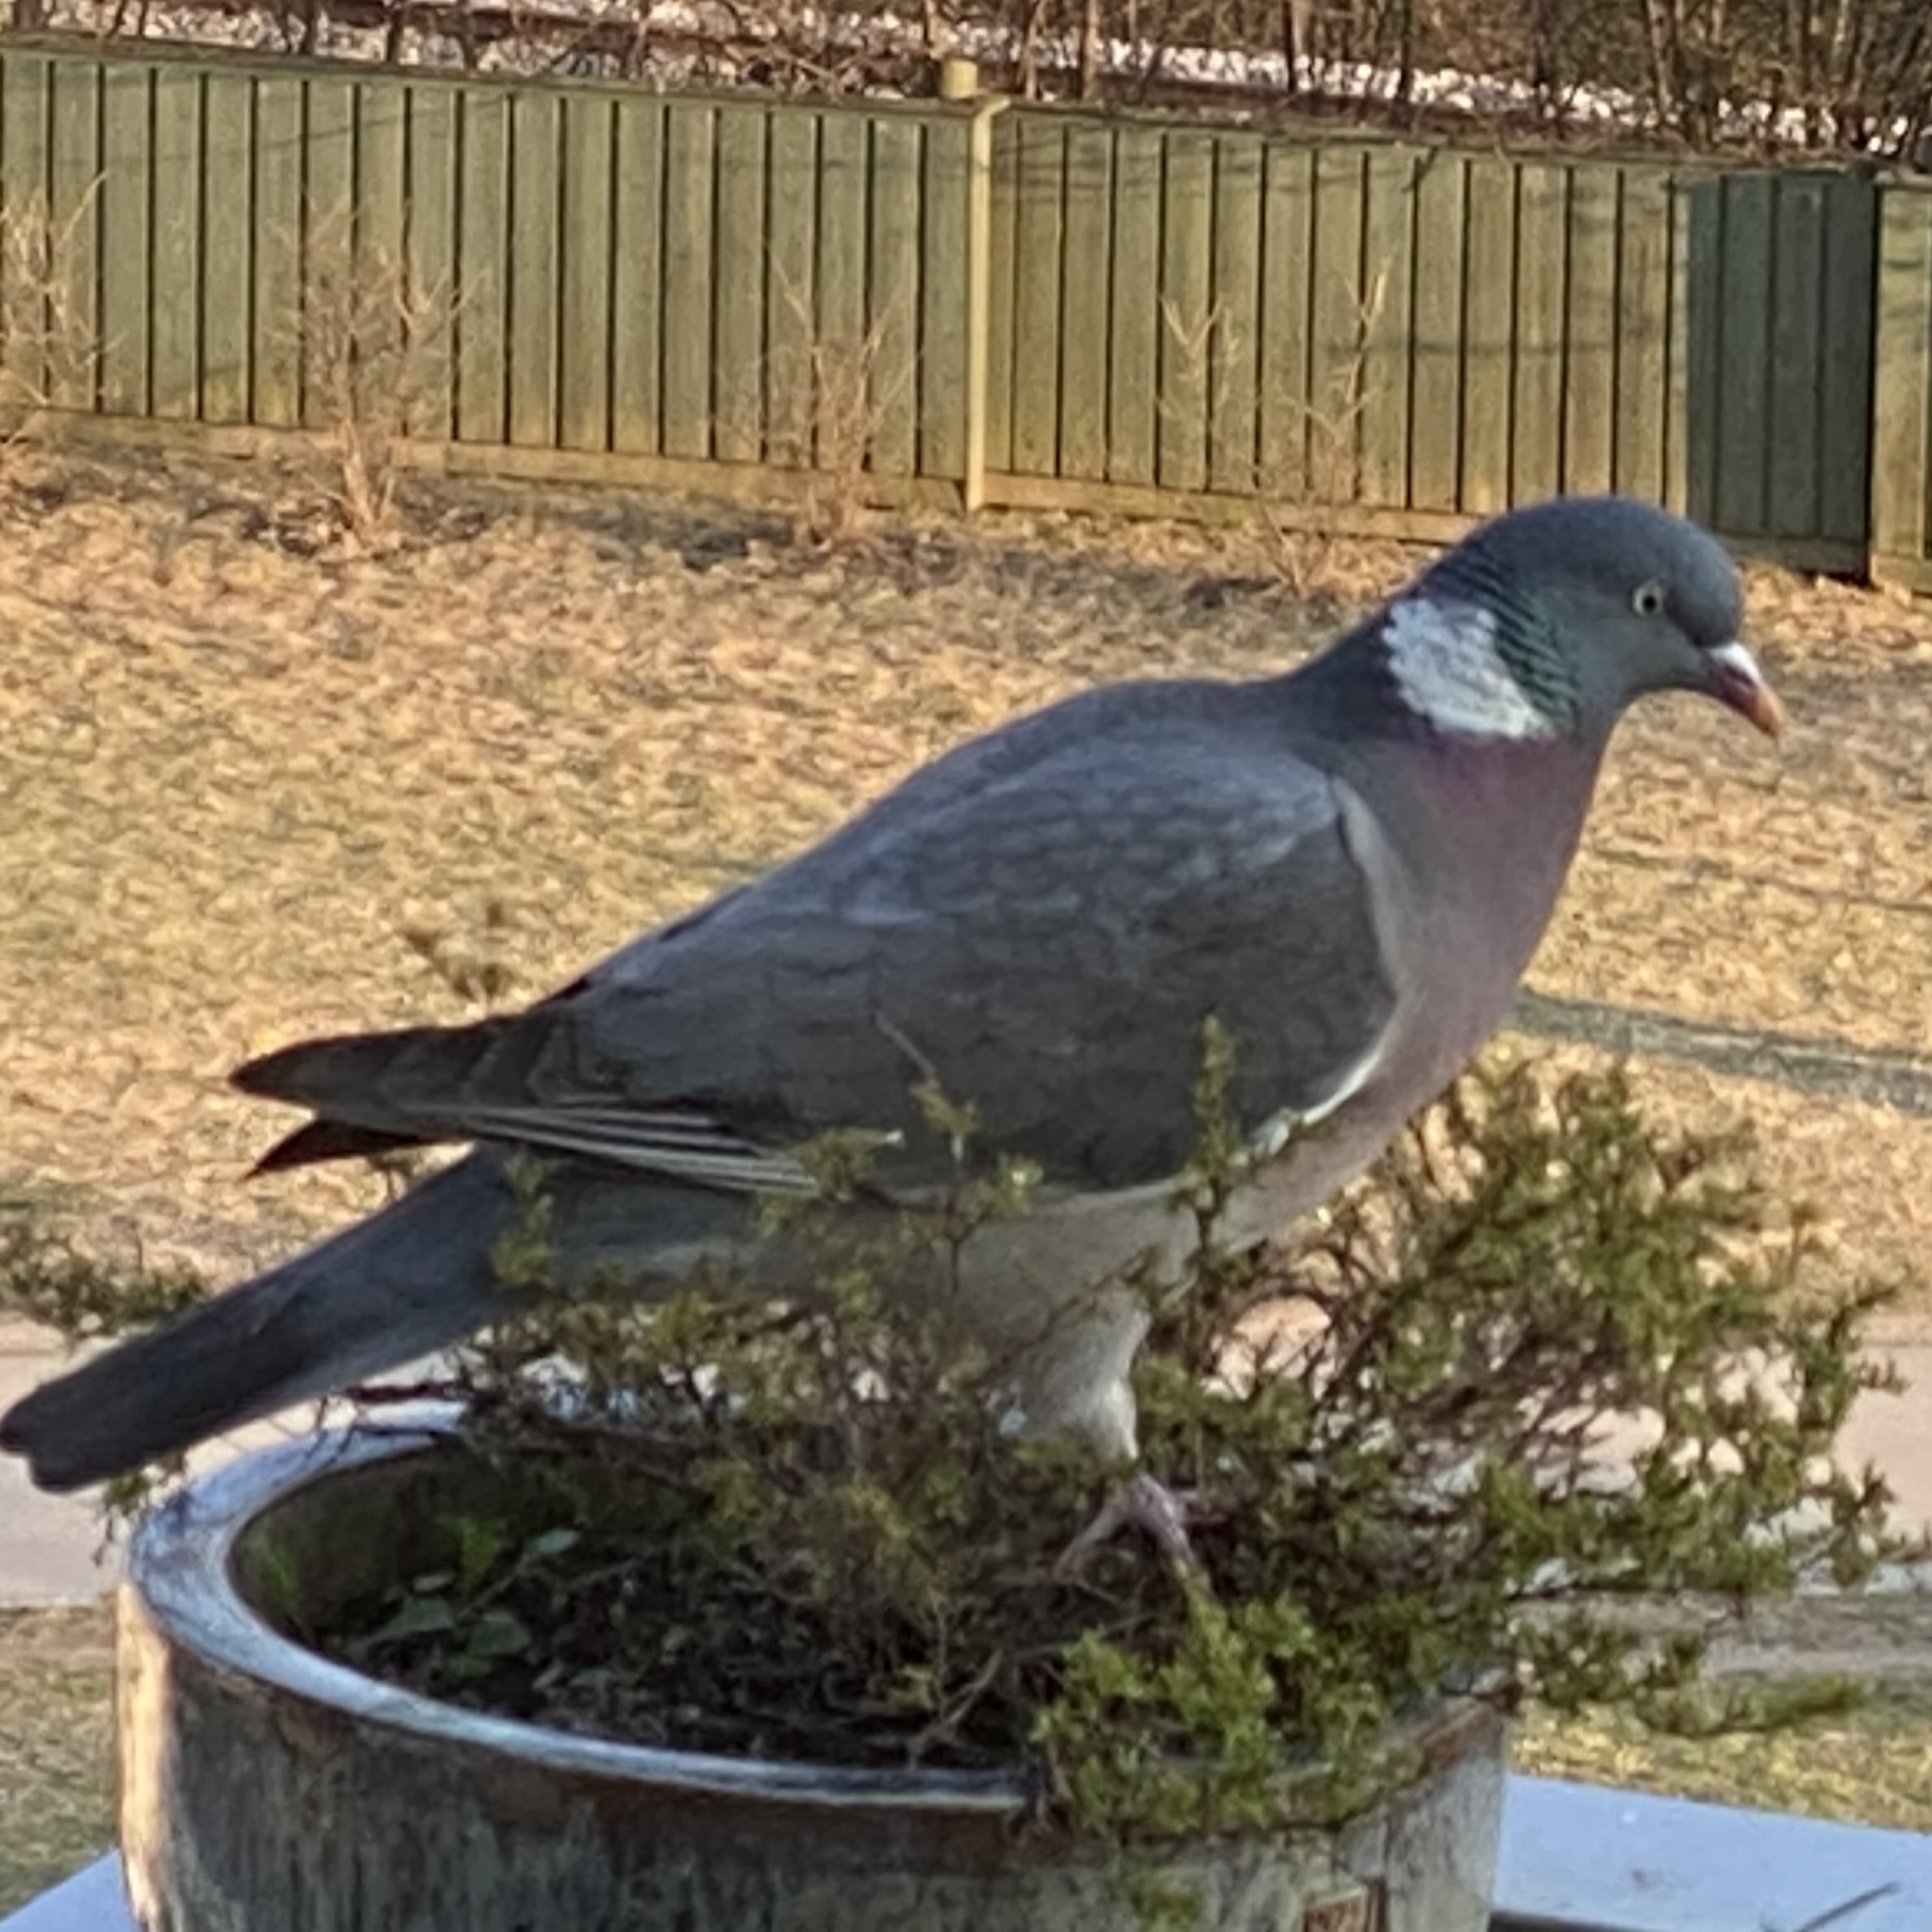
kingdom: Animalia
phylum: Chordata
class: Aves
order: Columbiformes
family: Columbidae
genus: Columba
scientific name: Columba palumbus
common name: Common wood pigeon
